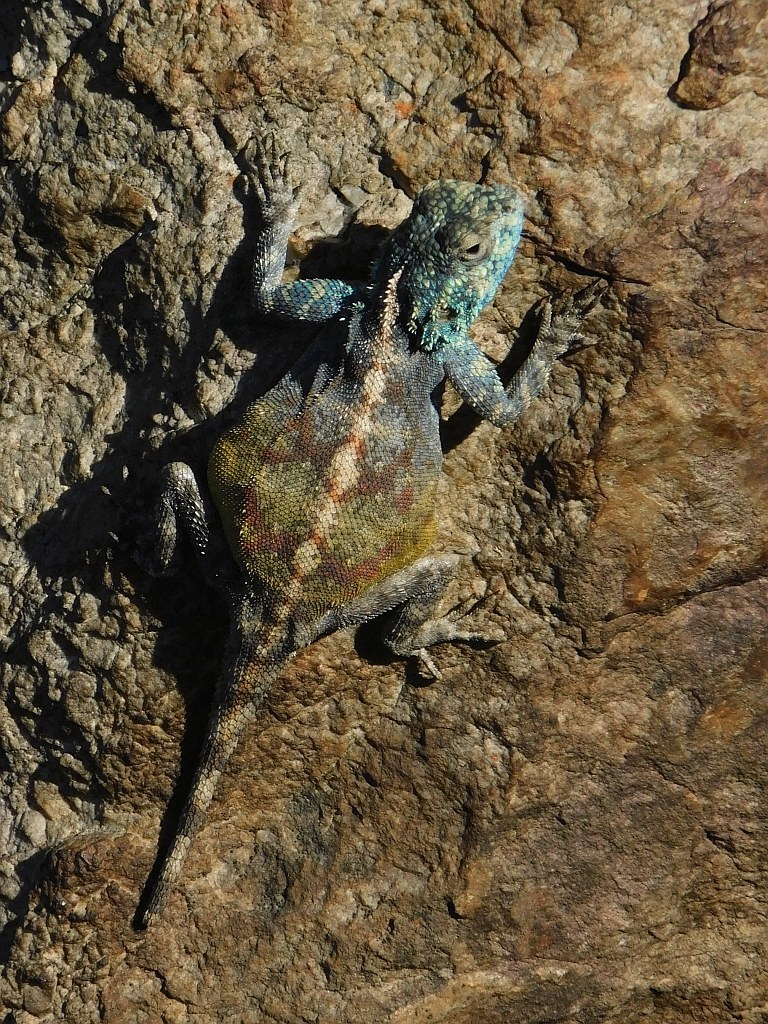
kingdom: Animalia
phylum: Chordata
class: Squamata
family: Agamidae
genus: Agama
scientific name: Agama atra
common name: Southern african rock agama
